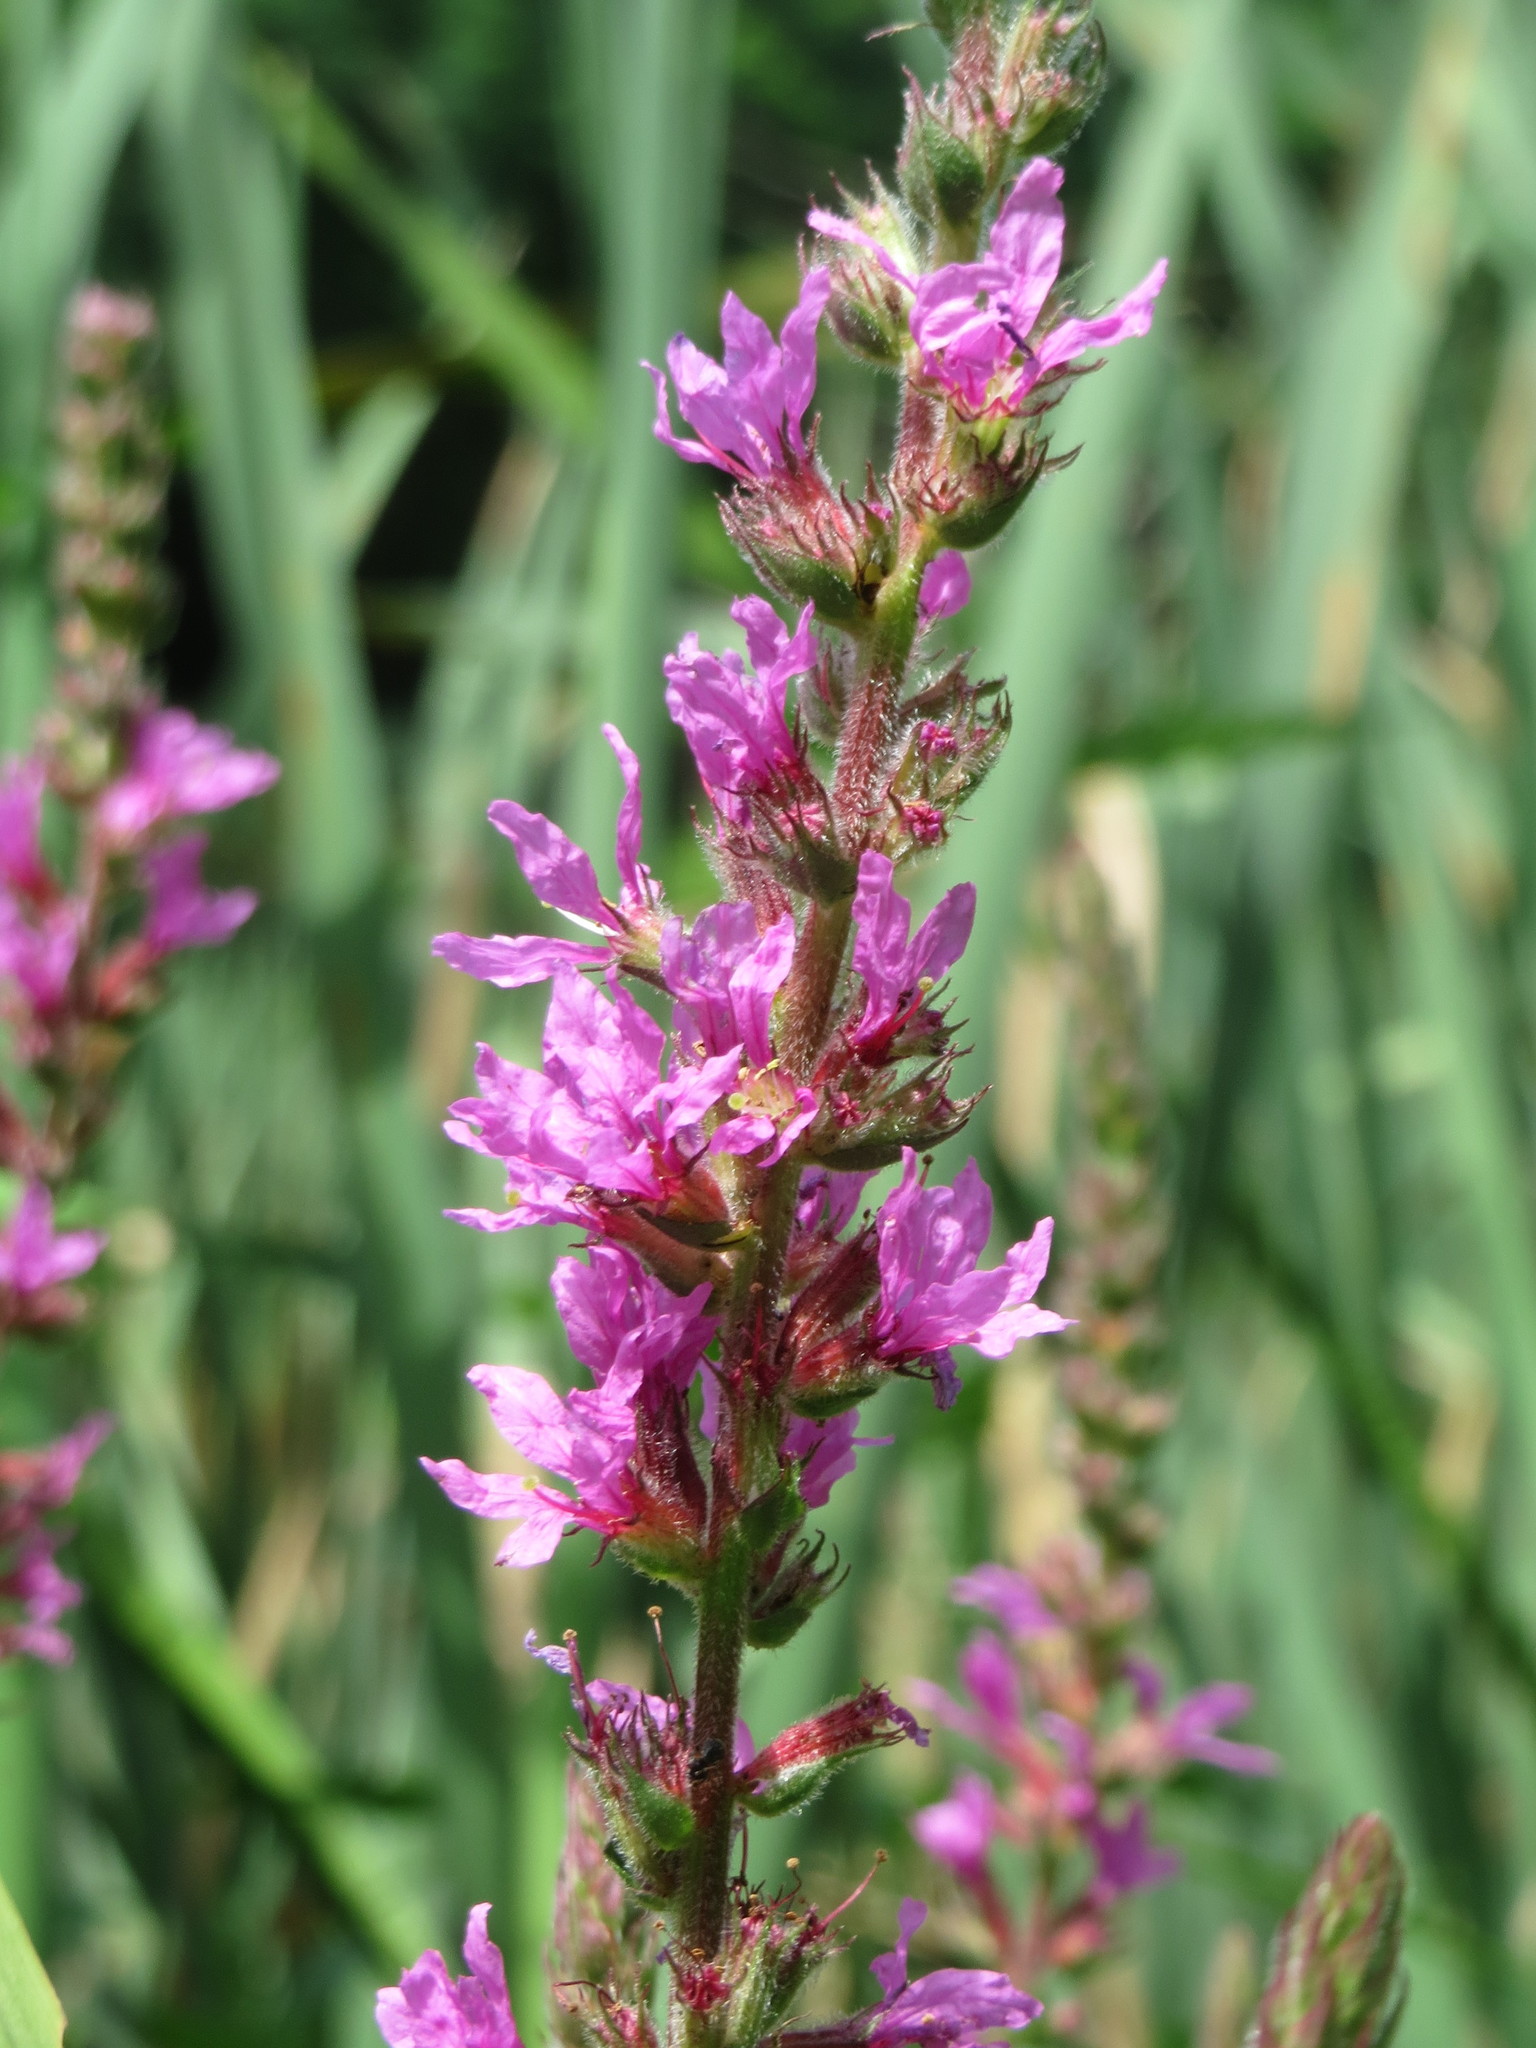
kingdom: Plantae
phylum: Tracheophyta
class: Magnoliopsida
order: Myrtales
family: Lythraceae
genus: Lythrum
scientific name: Lythrum salicaria
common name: Purple loosestrife
